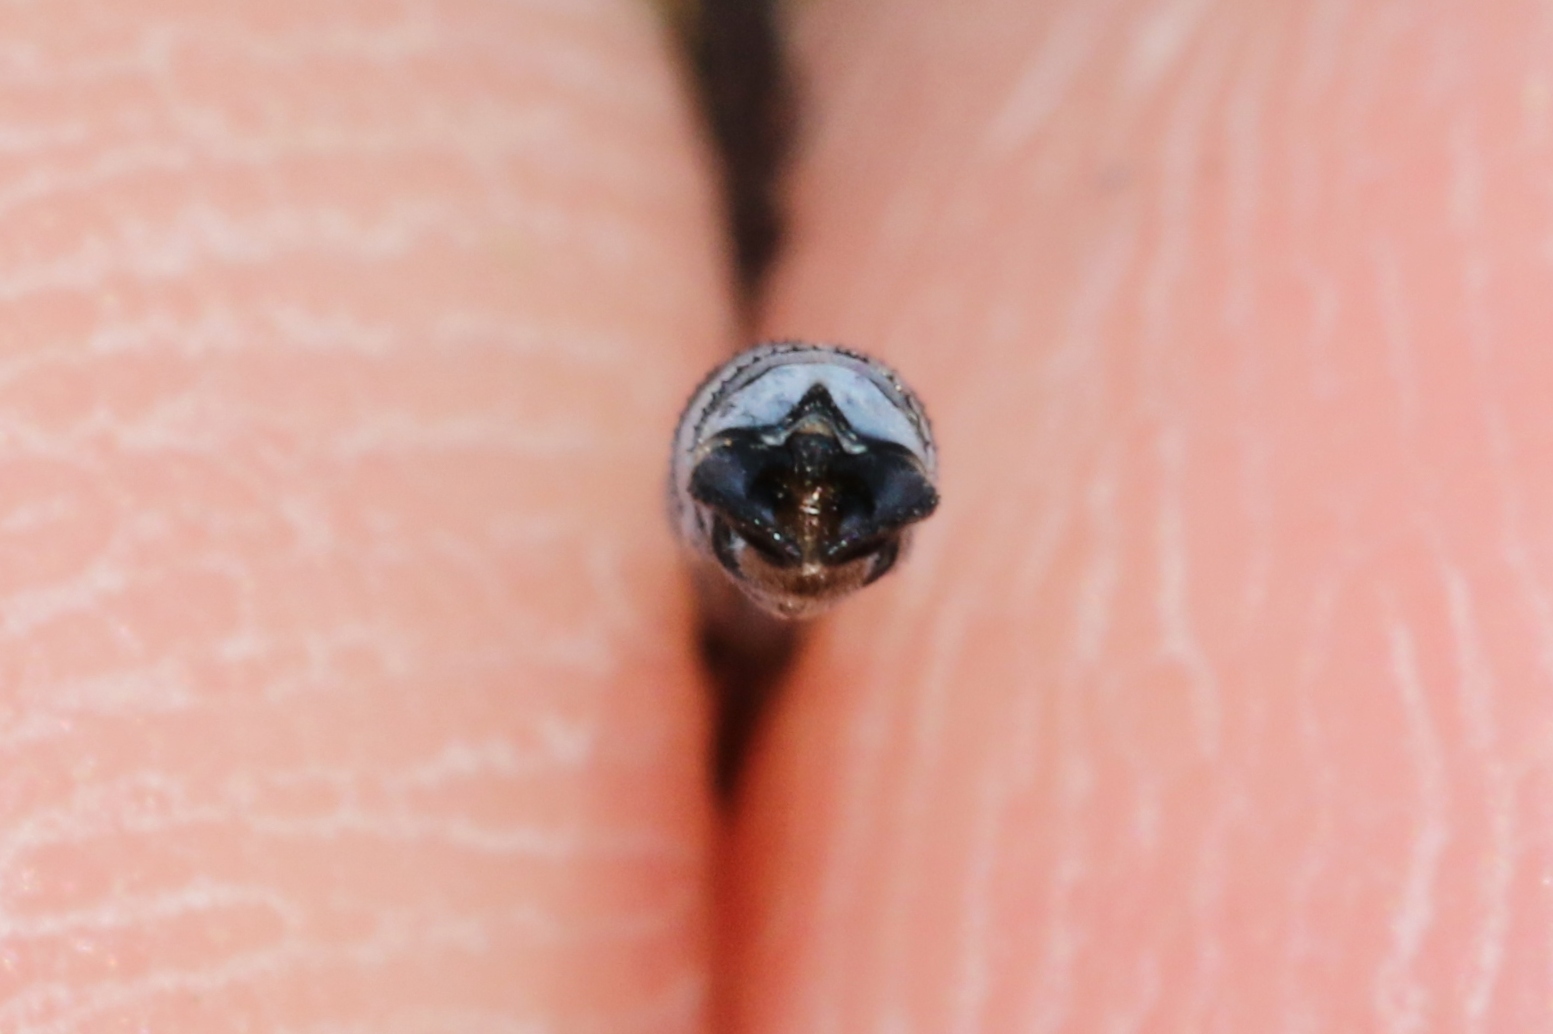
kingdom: Animalia
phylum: Arthropoda
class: Insecta
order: Odonata
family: Lestidae
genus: Lestes
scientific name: Lestes disjunctus
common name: Northern spreadwing
